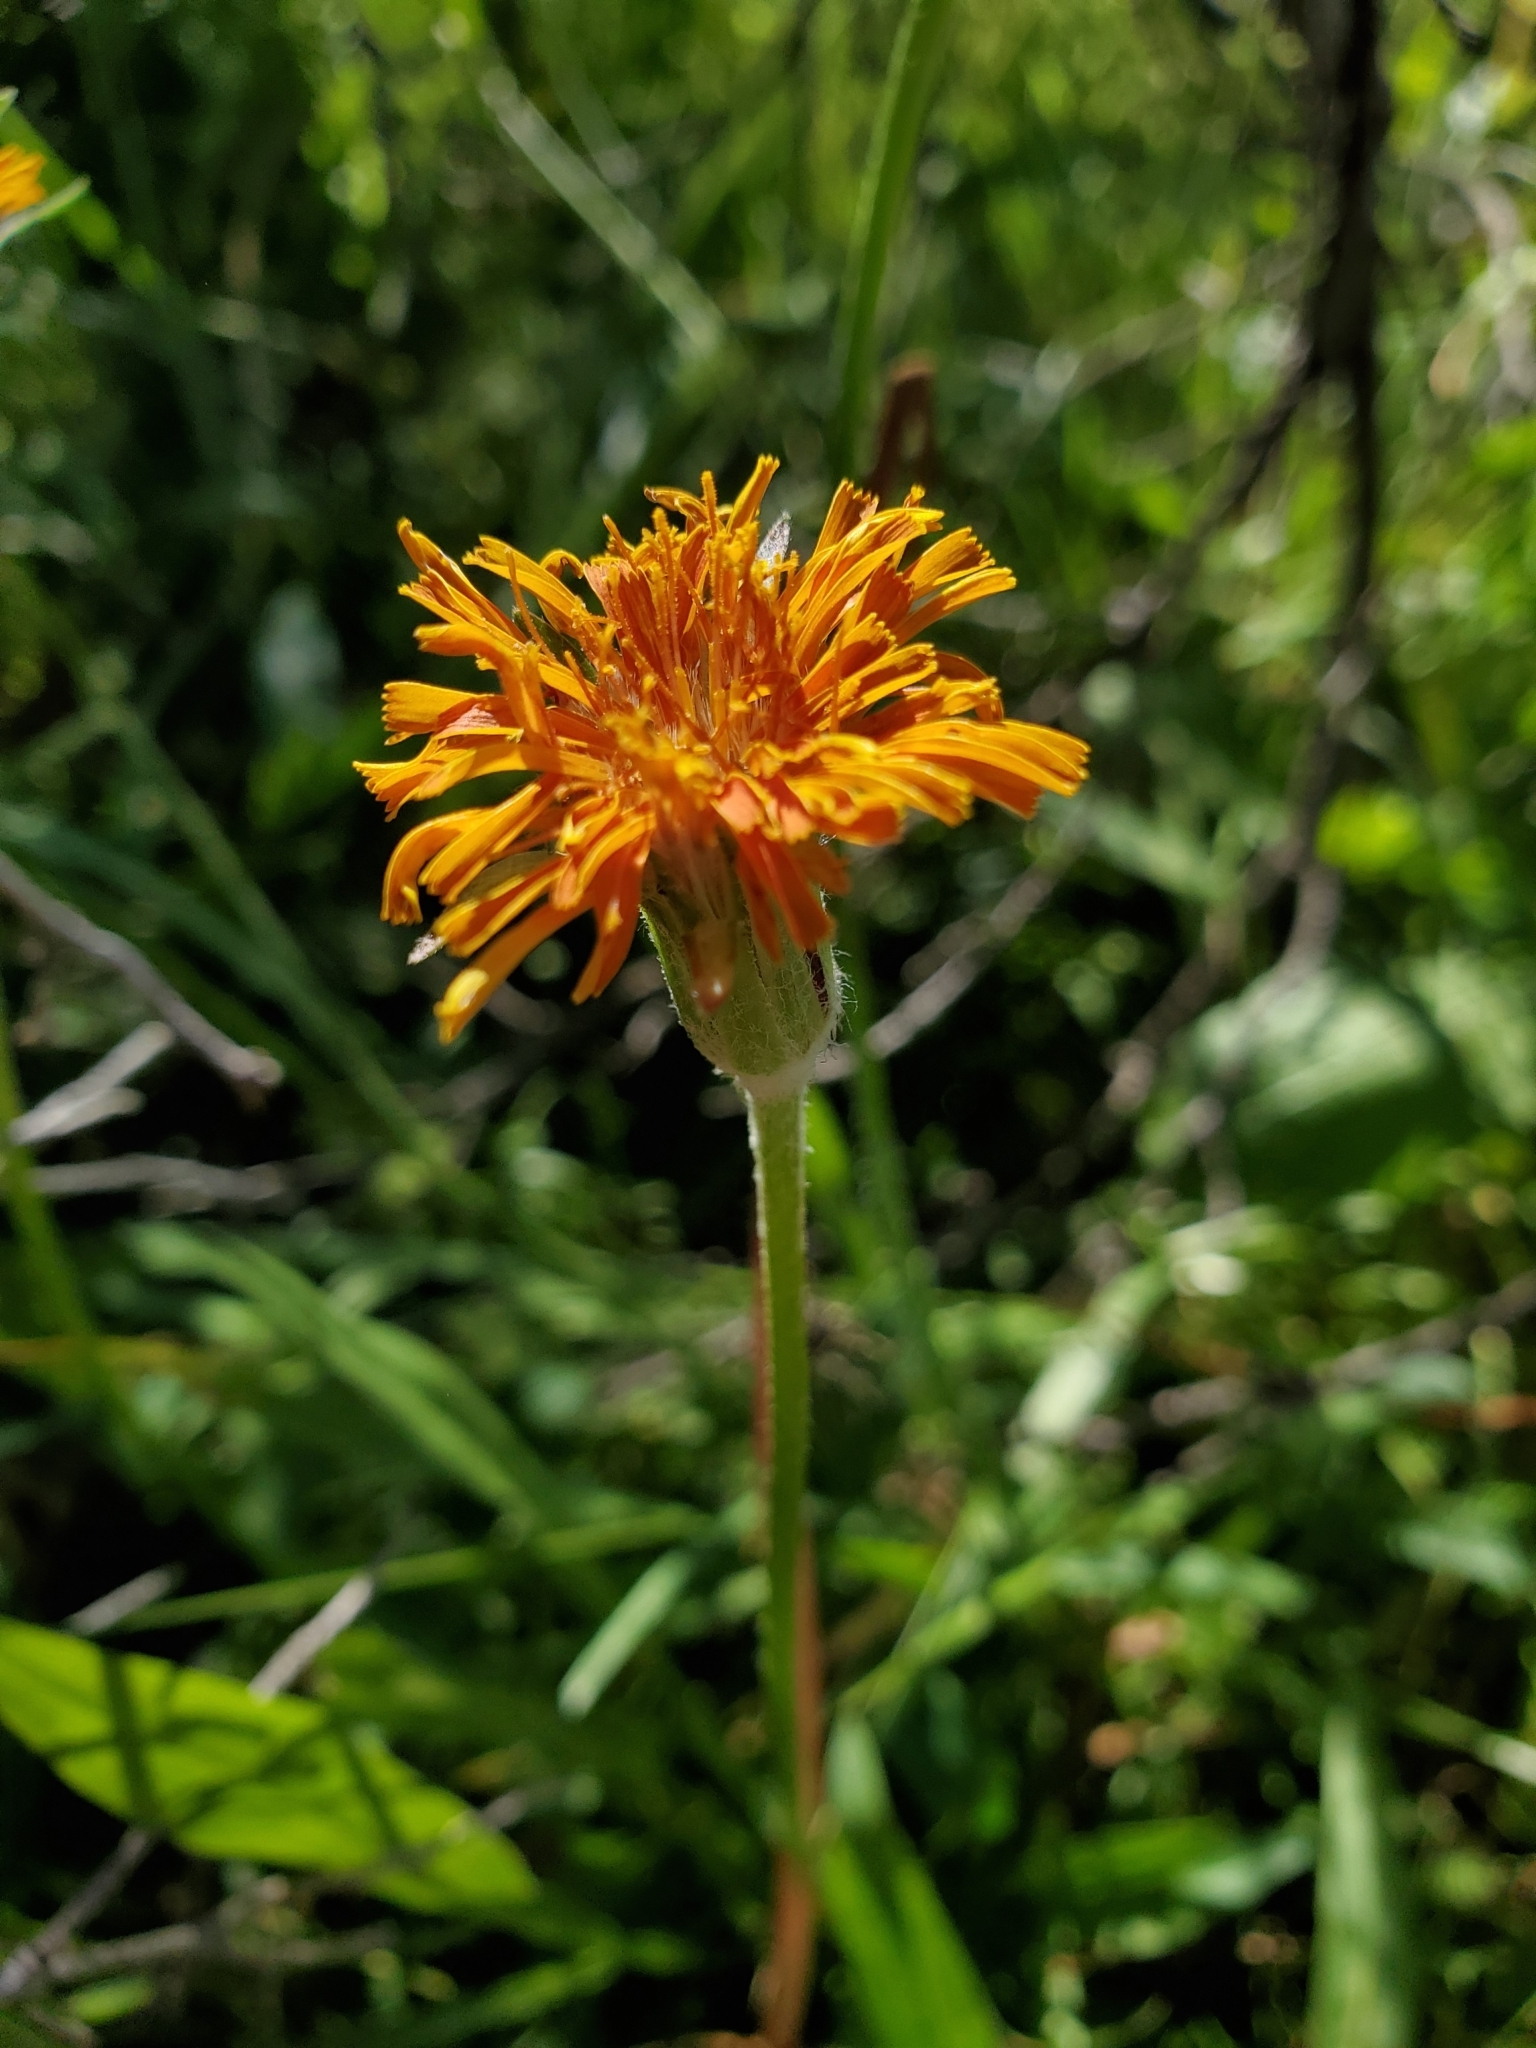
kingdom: Plantae
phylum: Tracheophyta
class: Magnoliopsida
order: Asterales
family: Asteraceae
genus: Agoseris
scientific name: Agoseris aurantiaca
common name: Mountain agoseris
